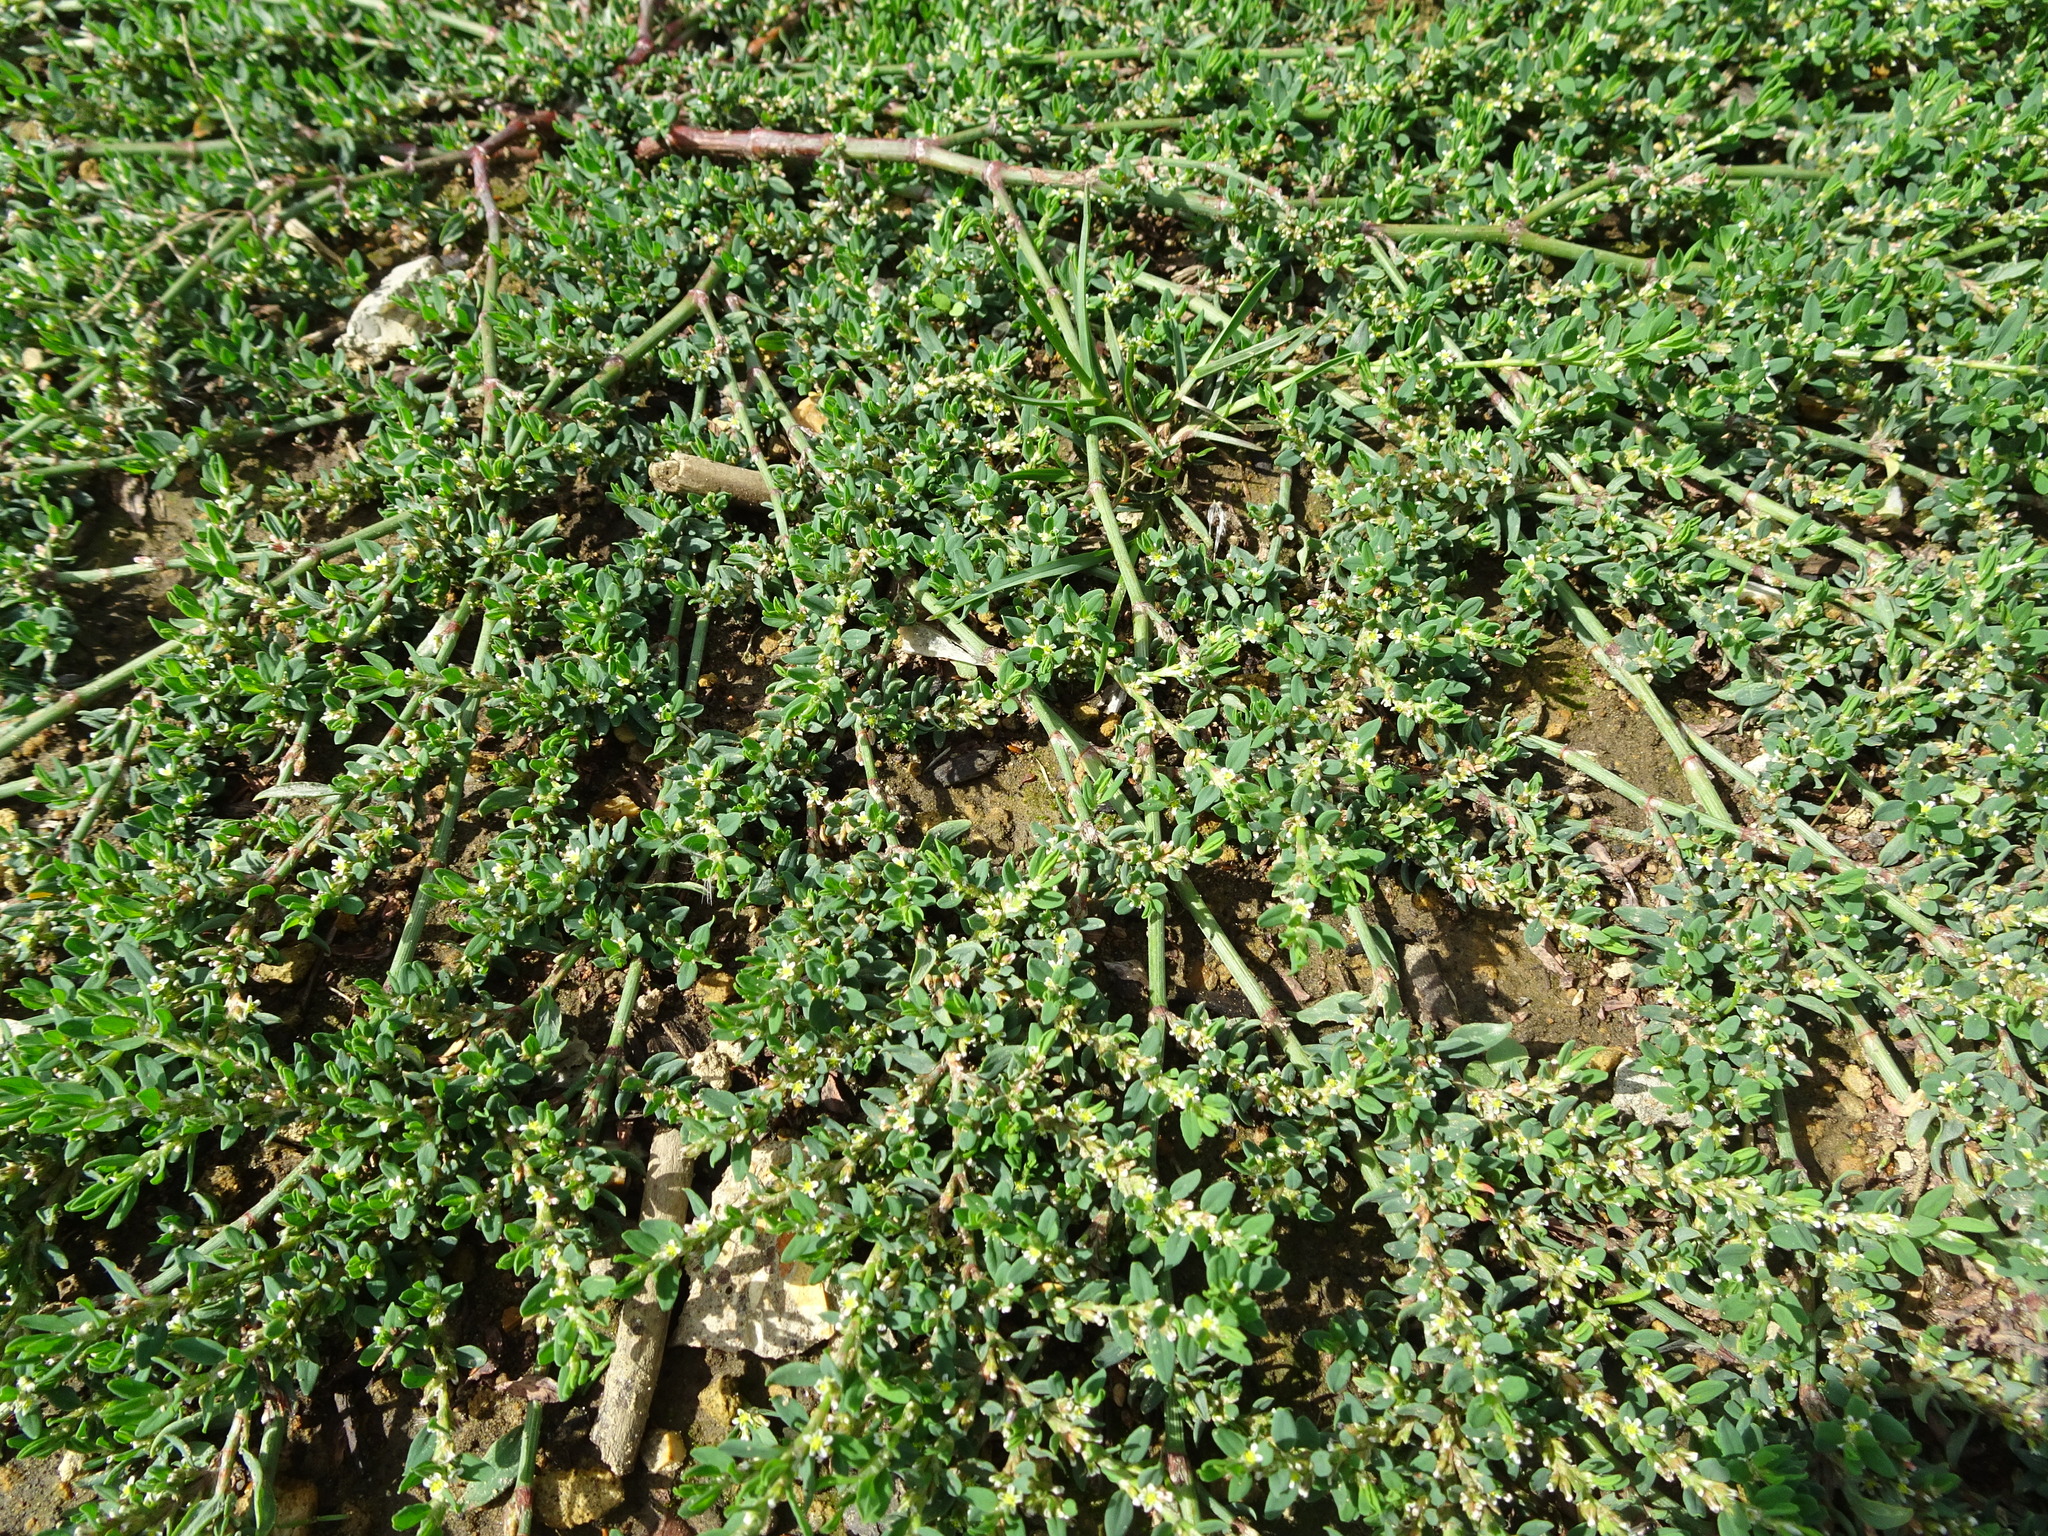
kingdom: Plantae
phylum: Tracheophyta
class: Magnoliopsida
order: Caryophyllales
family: Polygonaceae
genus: Polygonum
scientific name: Polygonum aviculare
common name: Prostrate knotweed
